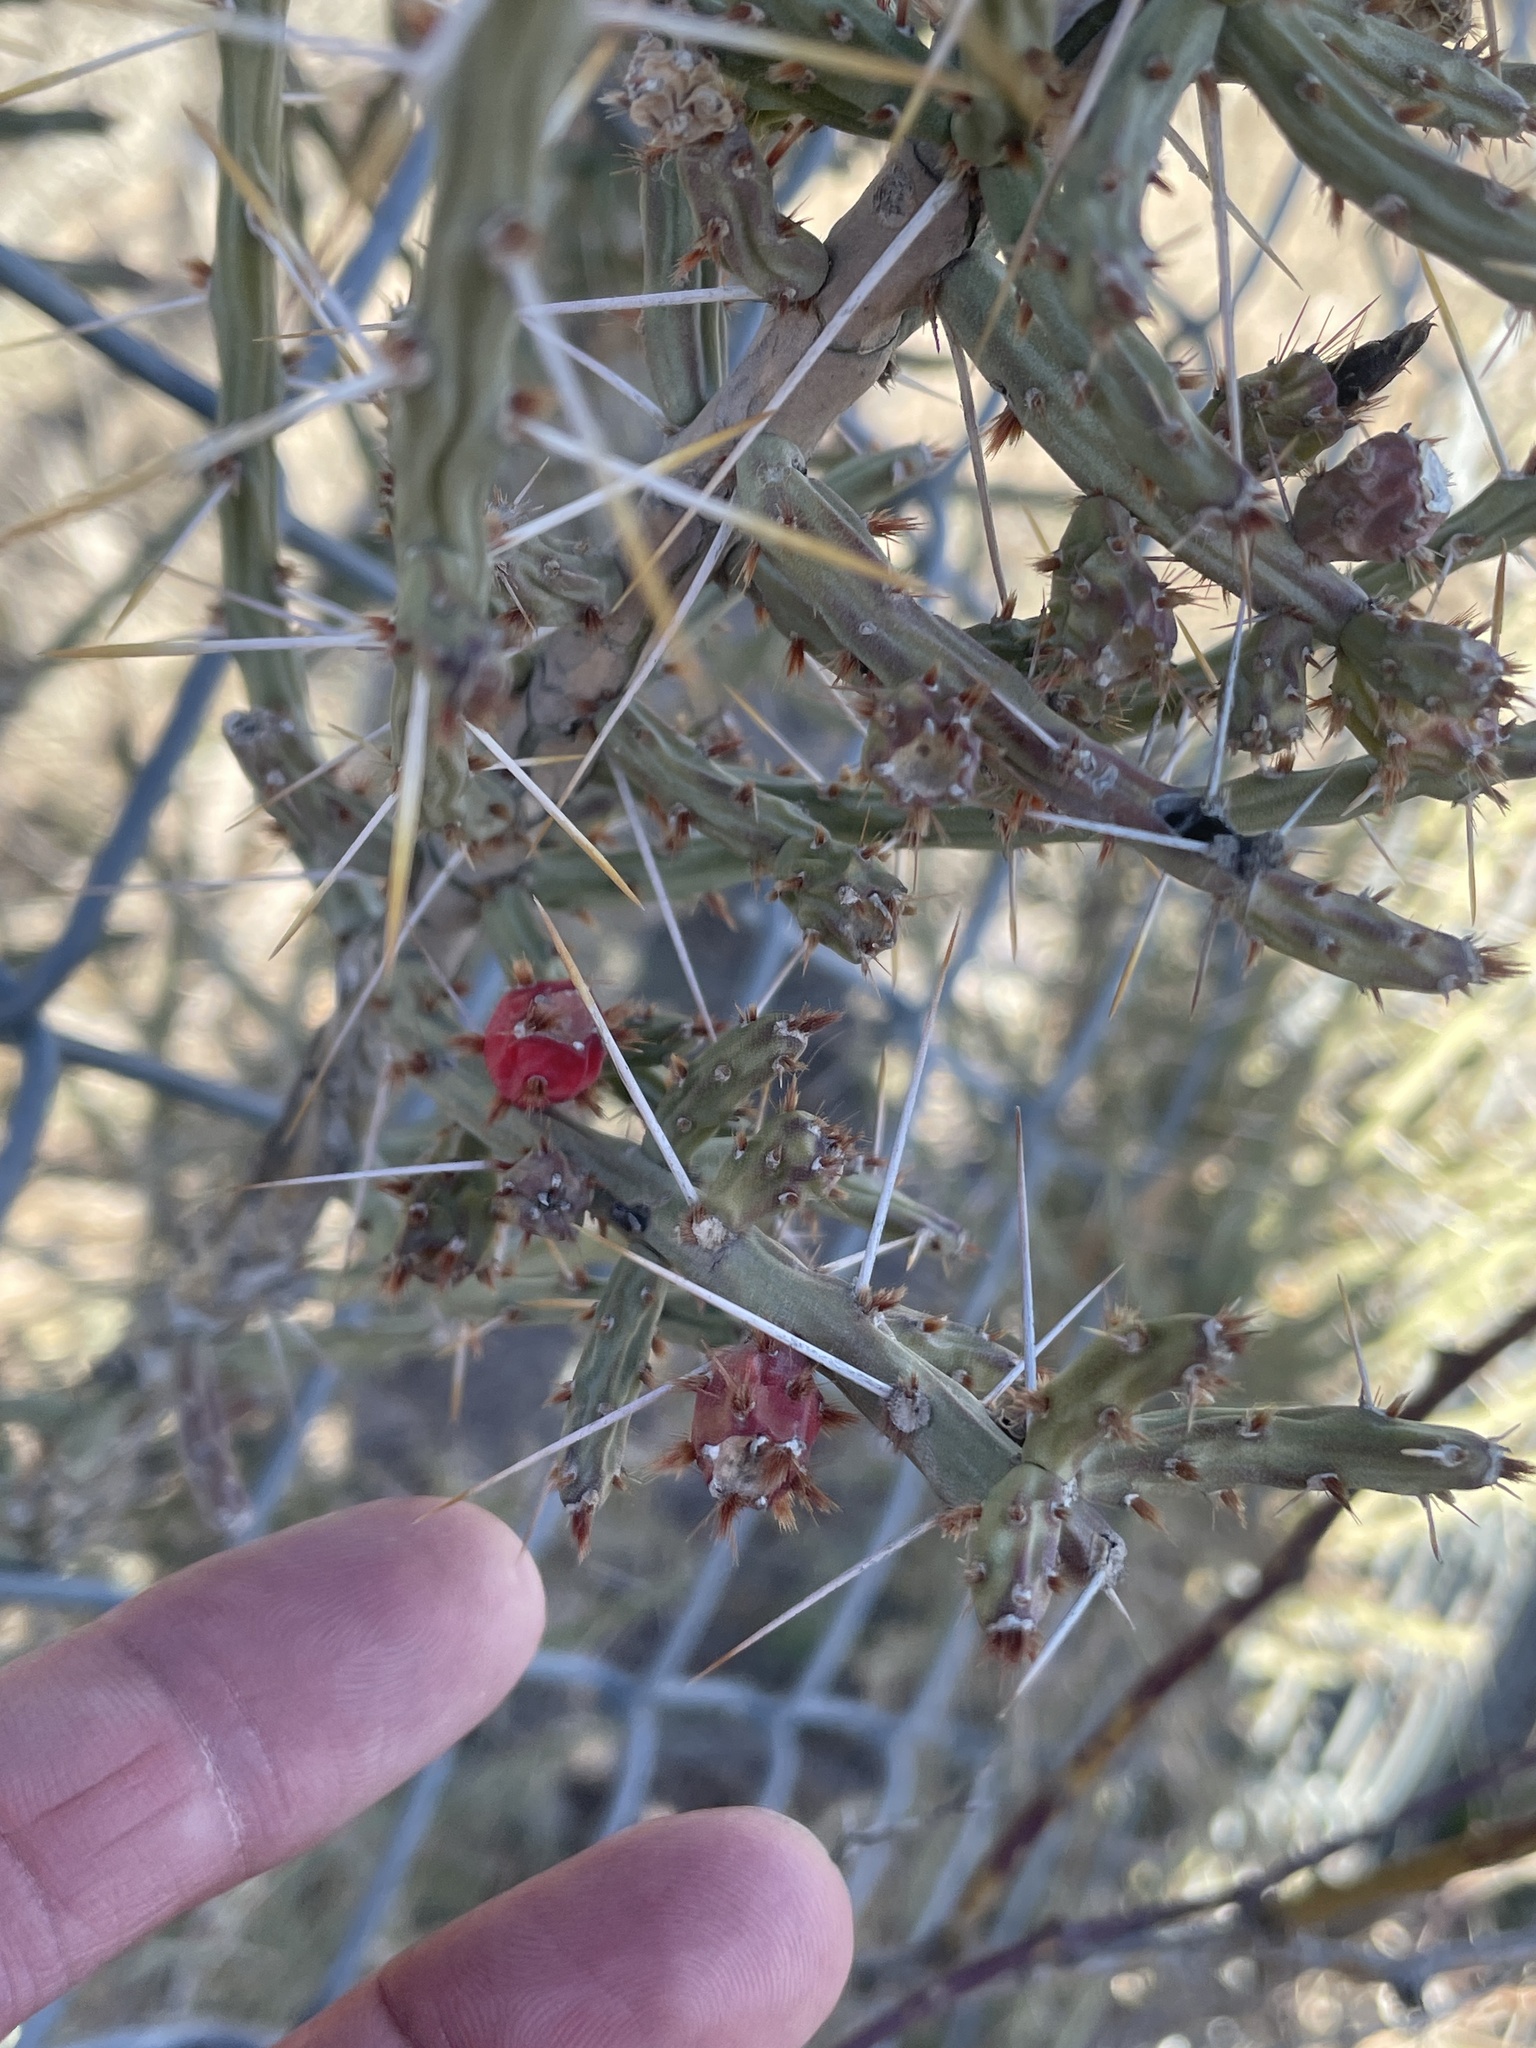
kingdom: Plantae
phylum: Tracheophyta
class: Magnoliopsida
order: Caryophyllales
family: Cactaceae
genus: Cylindropuntia
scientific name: Cylindropuntia leptocaulis
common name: Christmas cactus
